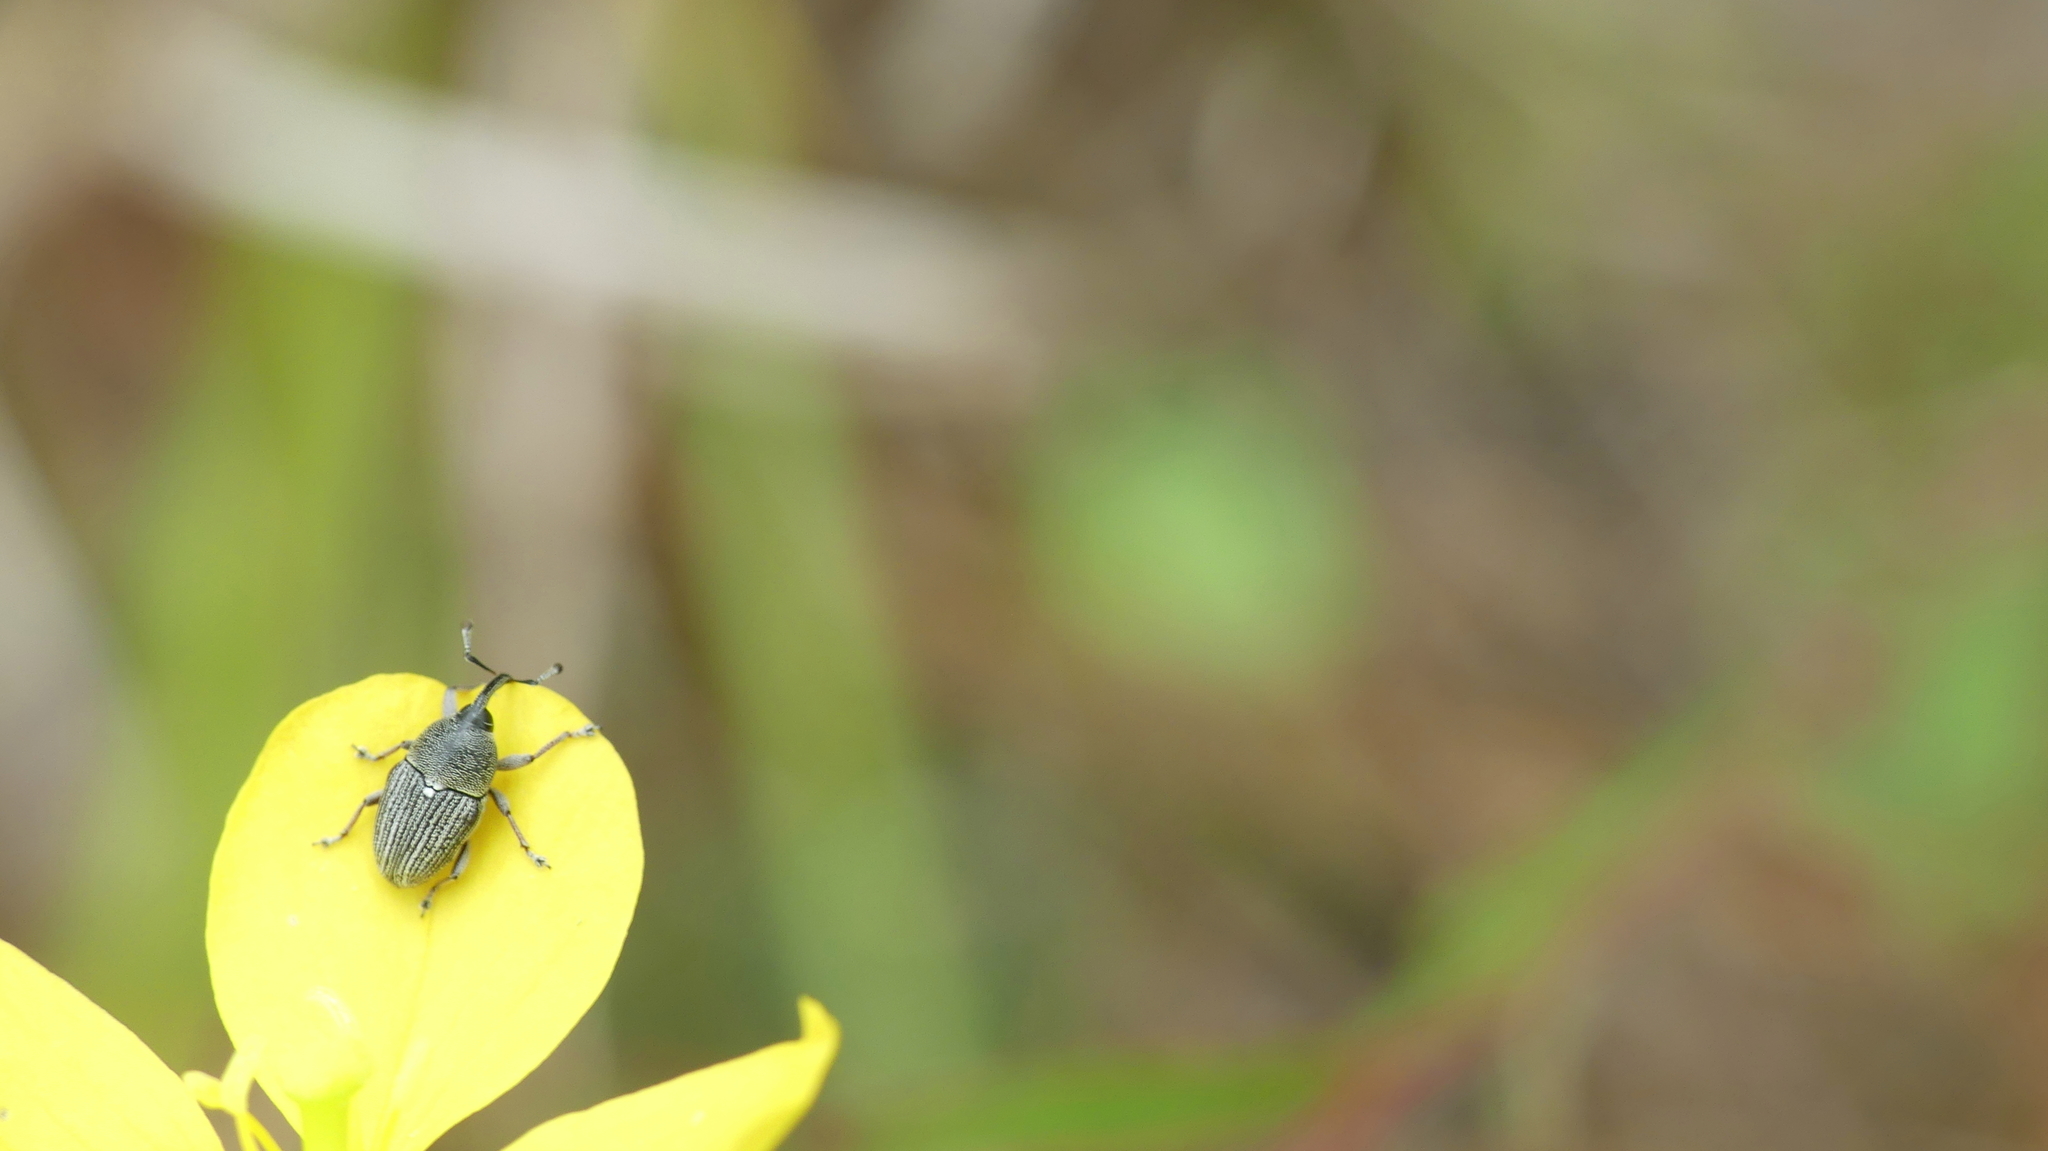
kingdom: Animalia
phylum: Arthropoda
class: Insecta
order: Coleoptera
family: Curculionidae
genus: Odontocorynus
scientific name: Odontocorynus larvatus
